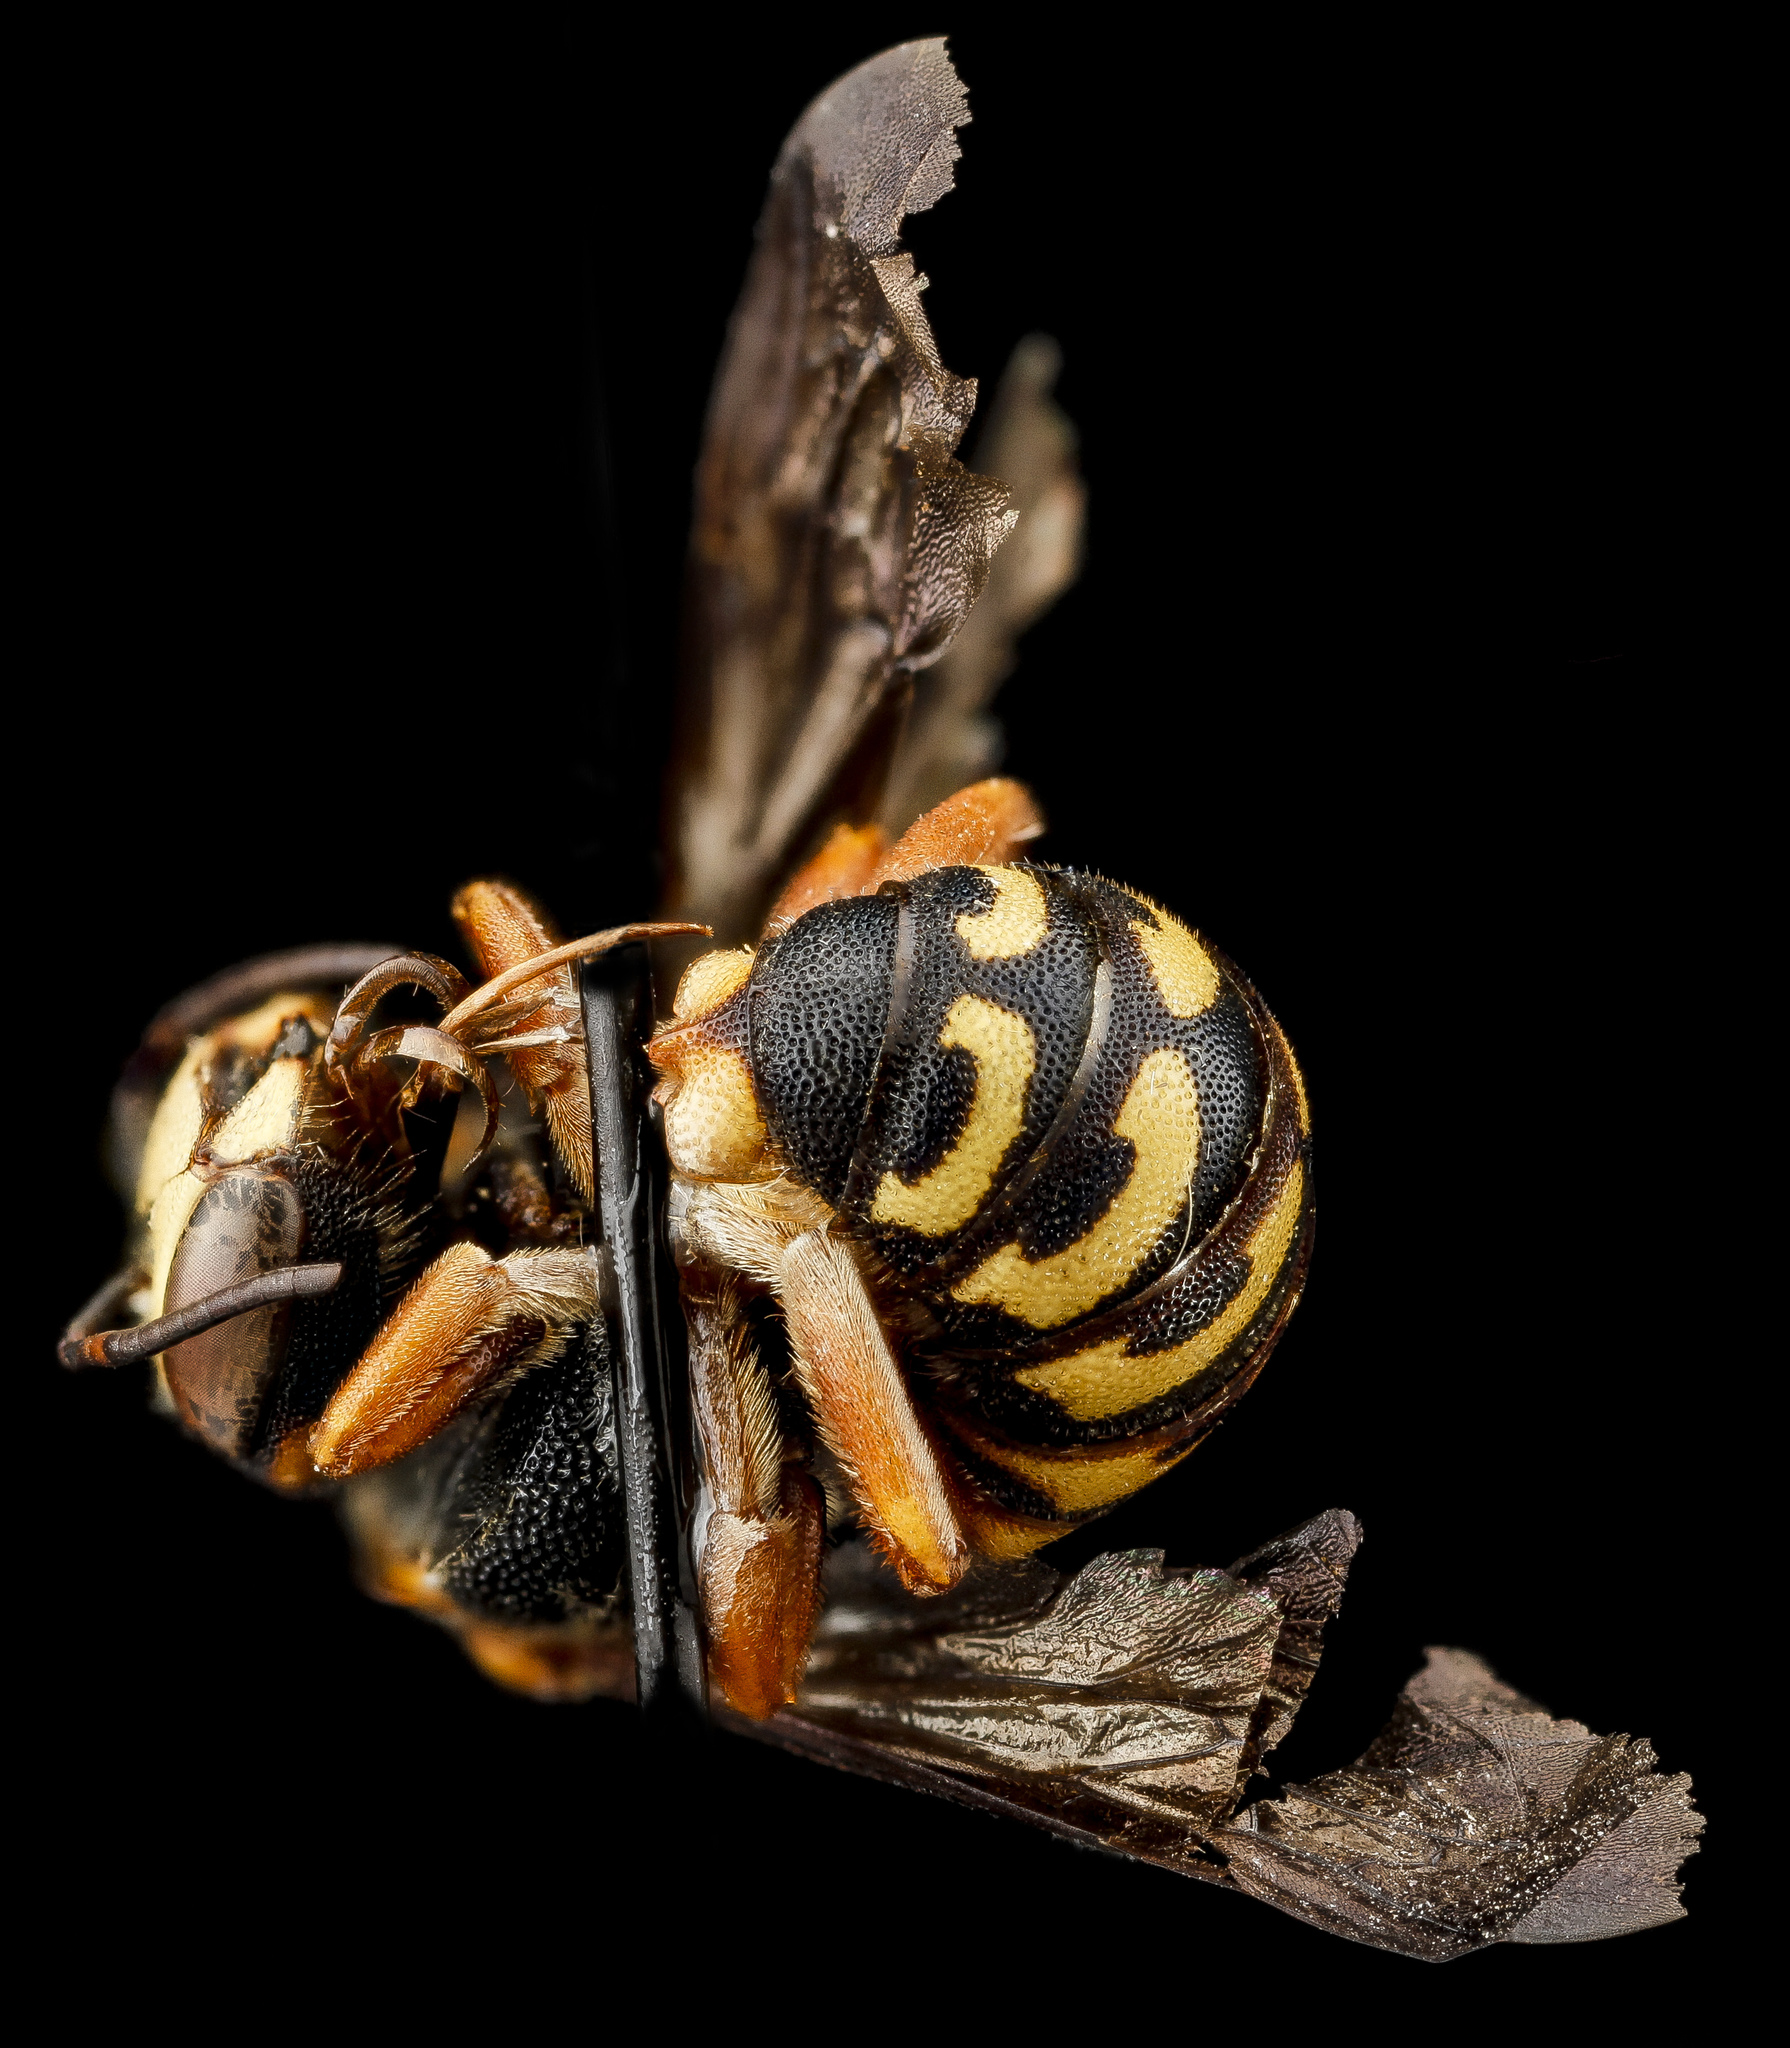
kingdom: Animalia
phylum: Arthropoda
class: Insecta
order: Hymenoptera
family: Megachilidae
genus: Dianthidium
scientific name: Dianthidium ulkei
